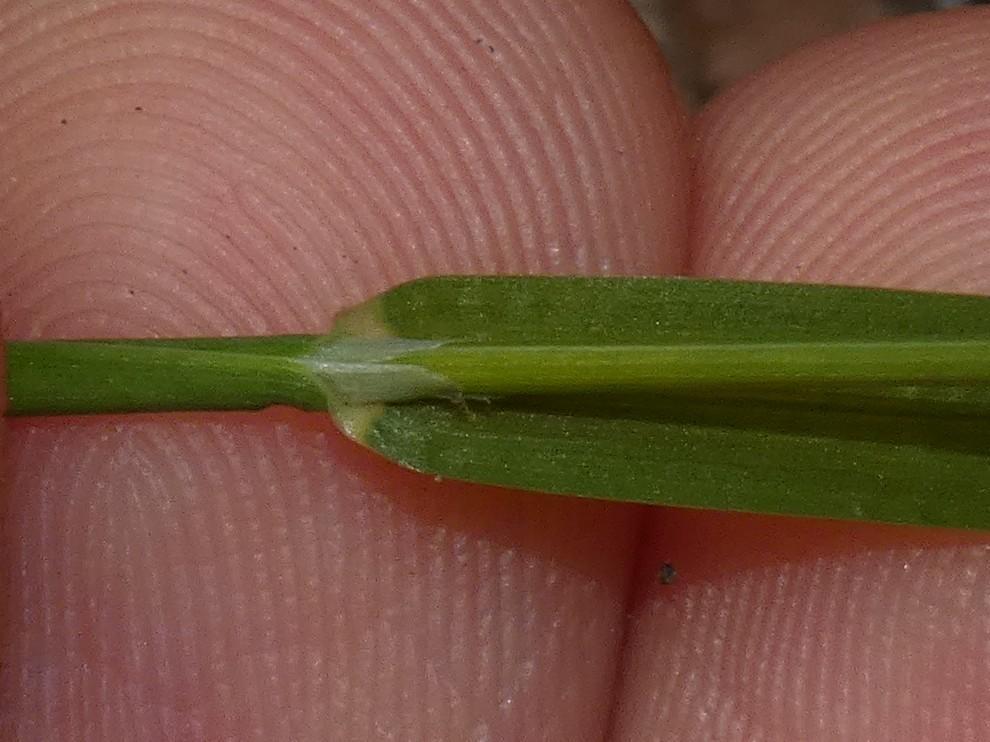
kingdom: Plantae
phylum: Tracheophyta
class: Liliopsida
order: Poales
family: Poaceae
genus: Poa
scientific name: Poa annua
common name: Annual bluegrass
